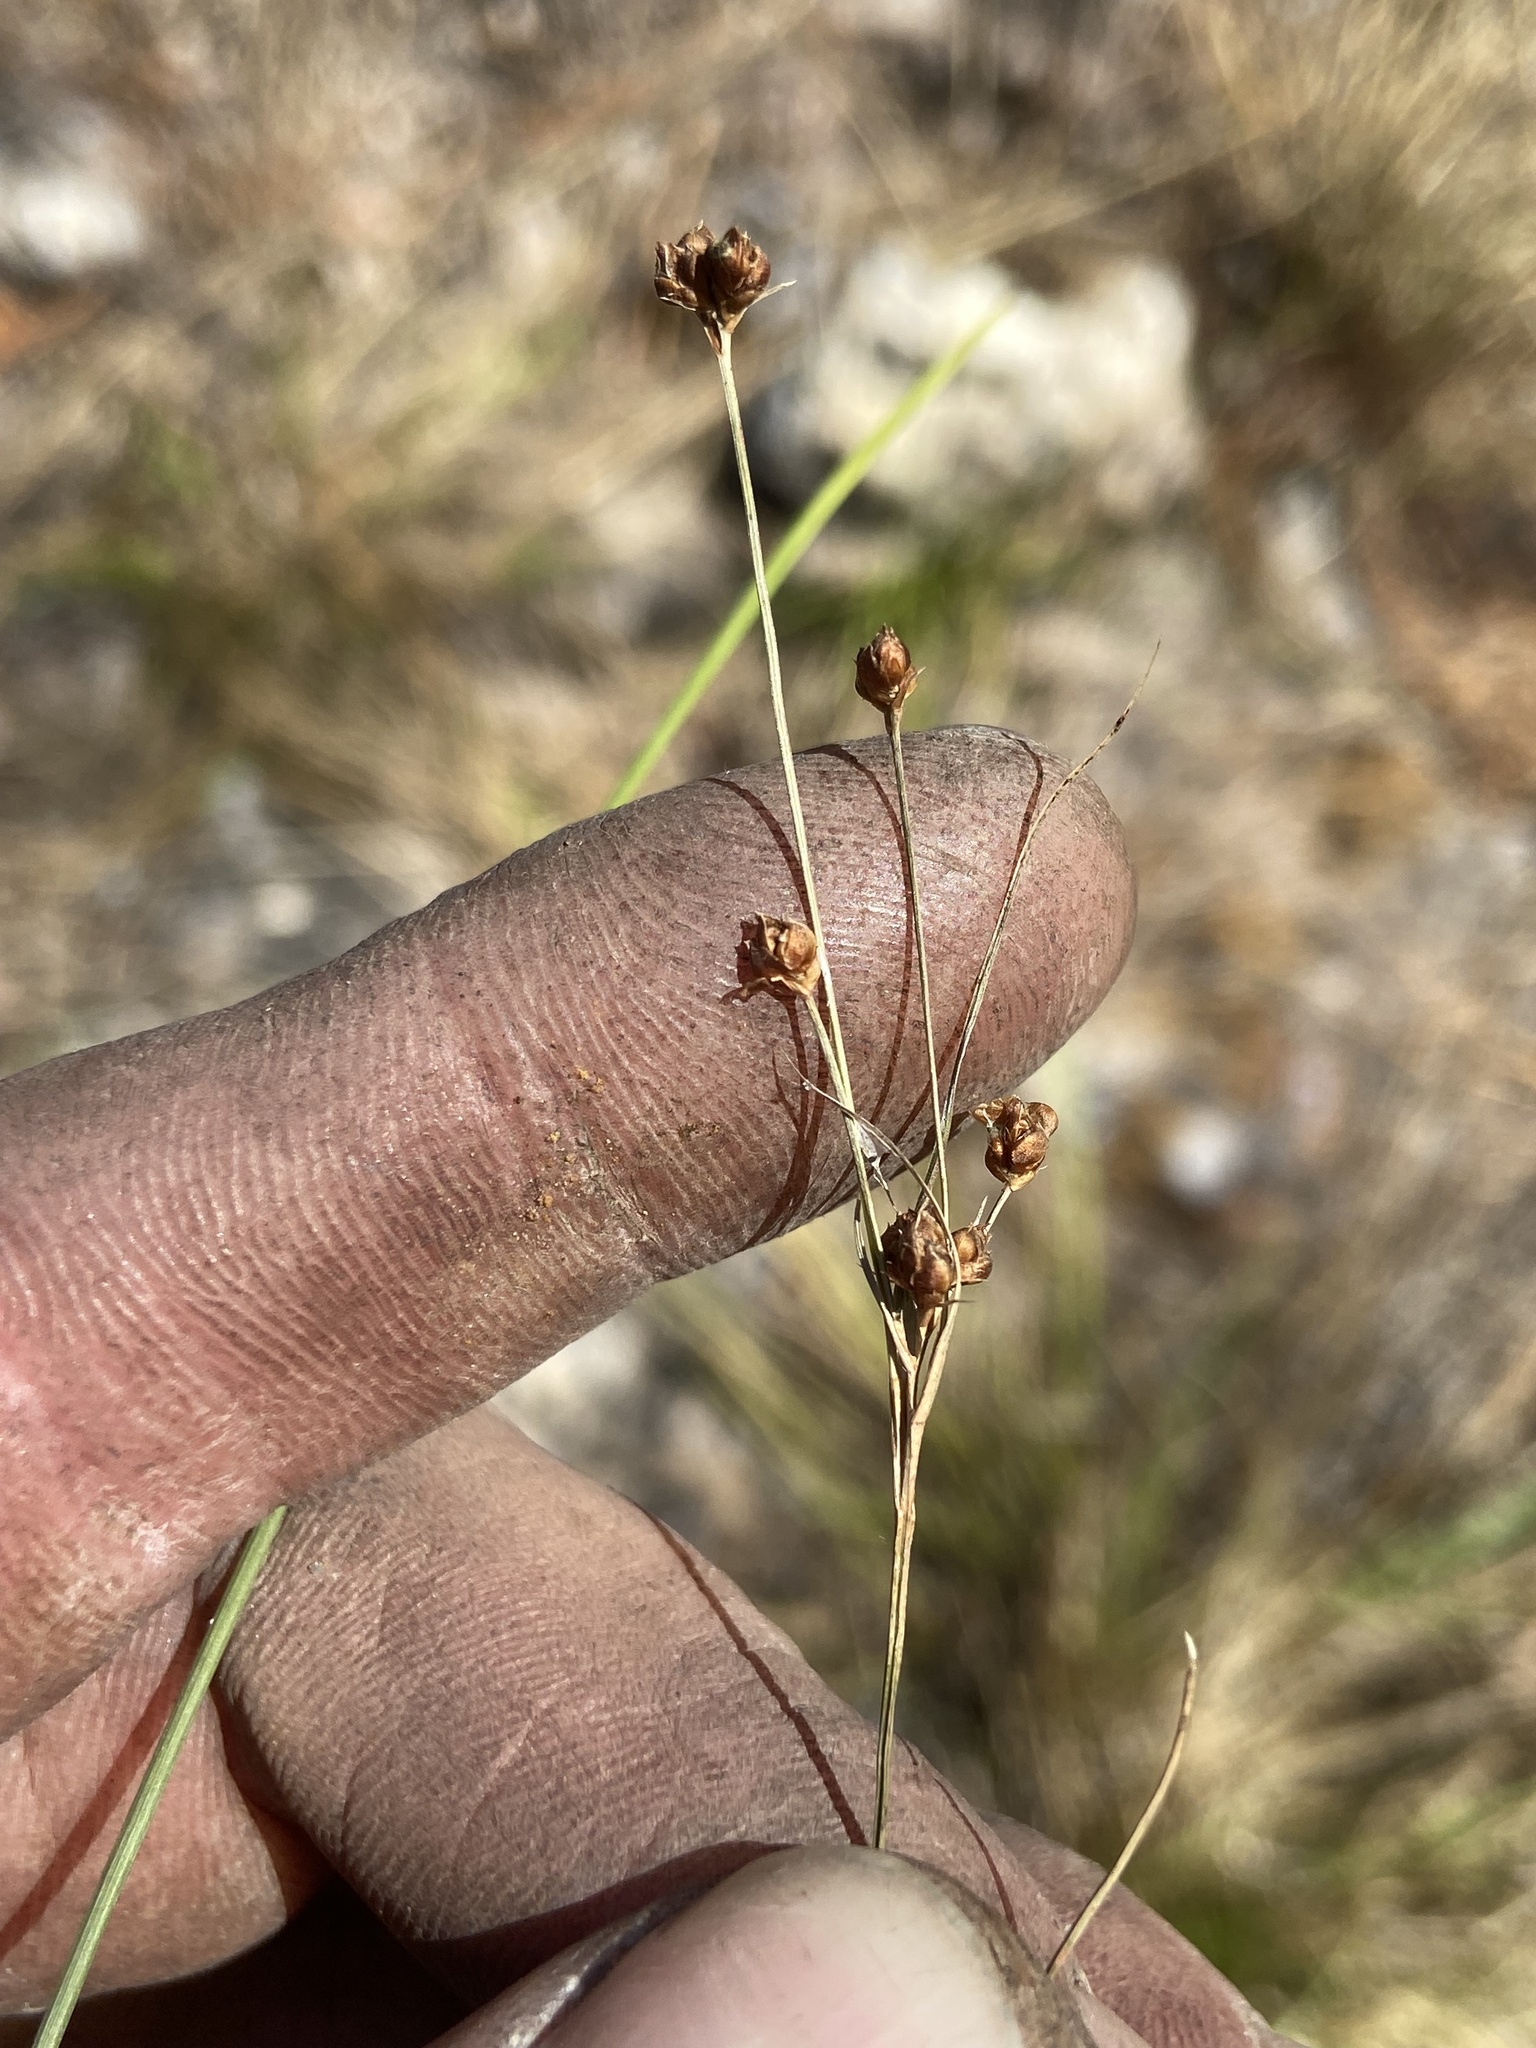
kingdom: Plantae
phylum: Tracheophyta
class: Liliopsida
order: Poales
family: Cyperaceae
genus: Rhynchospora
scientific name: Rhynchospora globularis
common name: Globe beaksedge
